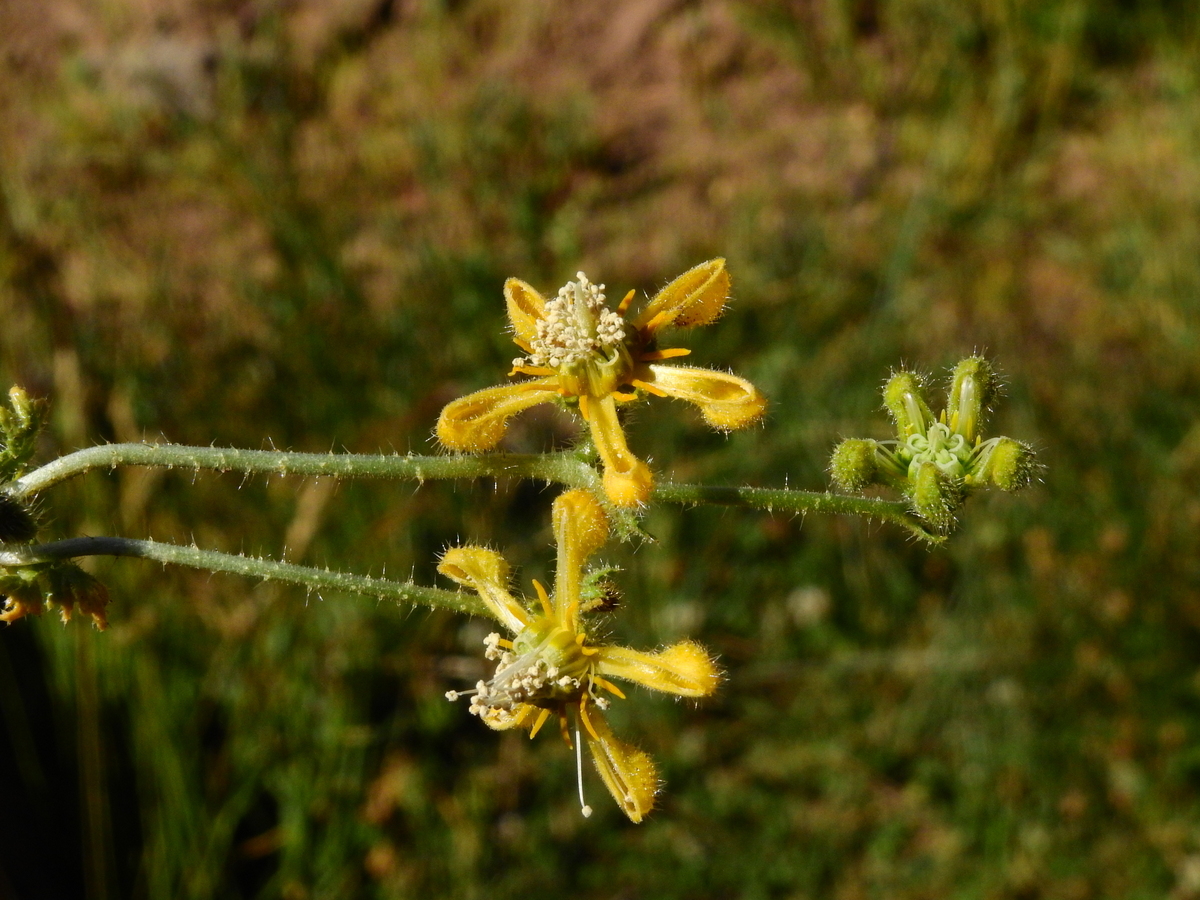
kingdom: Plantae
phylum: Tracheophyta
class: Magnoliopsida
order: Cornales
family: Loasaceae
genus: Blumenbachia
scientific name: Blumenbachia dissecta
